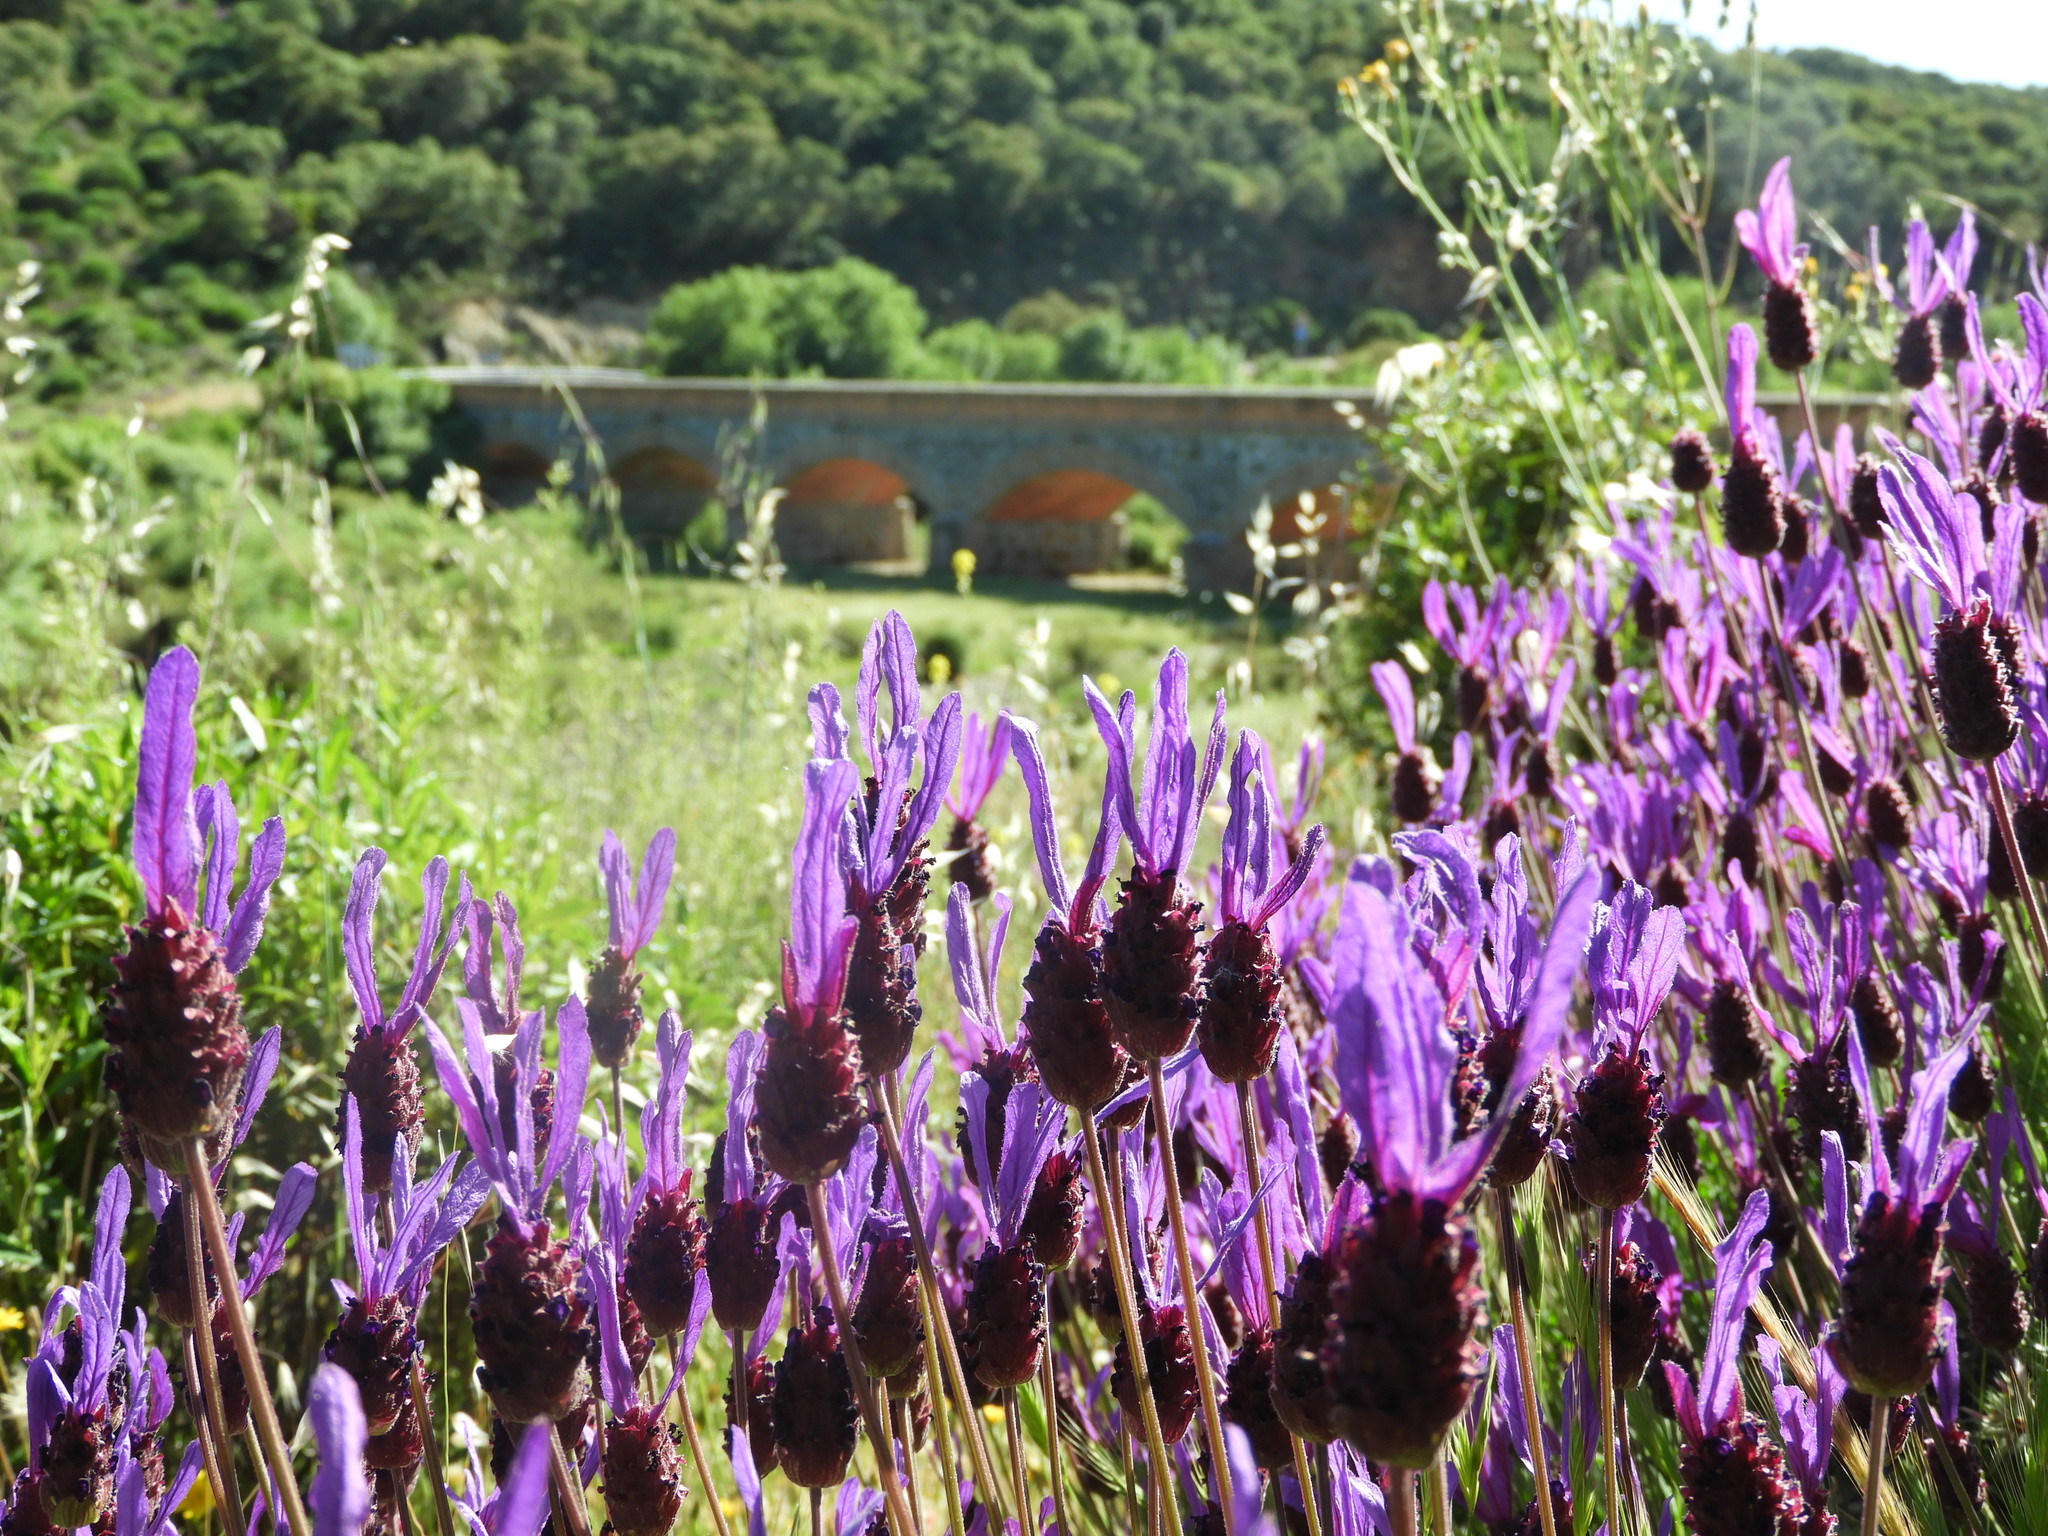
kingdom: Plantae
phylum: Tracheophyta
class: Magnoliopsida
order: Lamiales
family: Lamiaceae
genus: Lavandula
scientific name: Lavandula pedunculata
